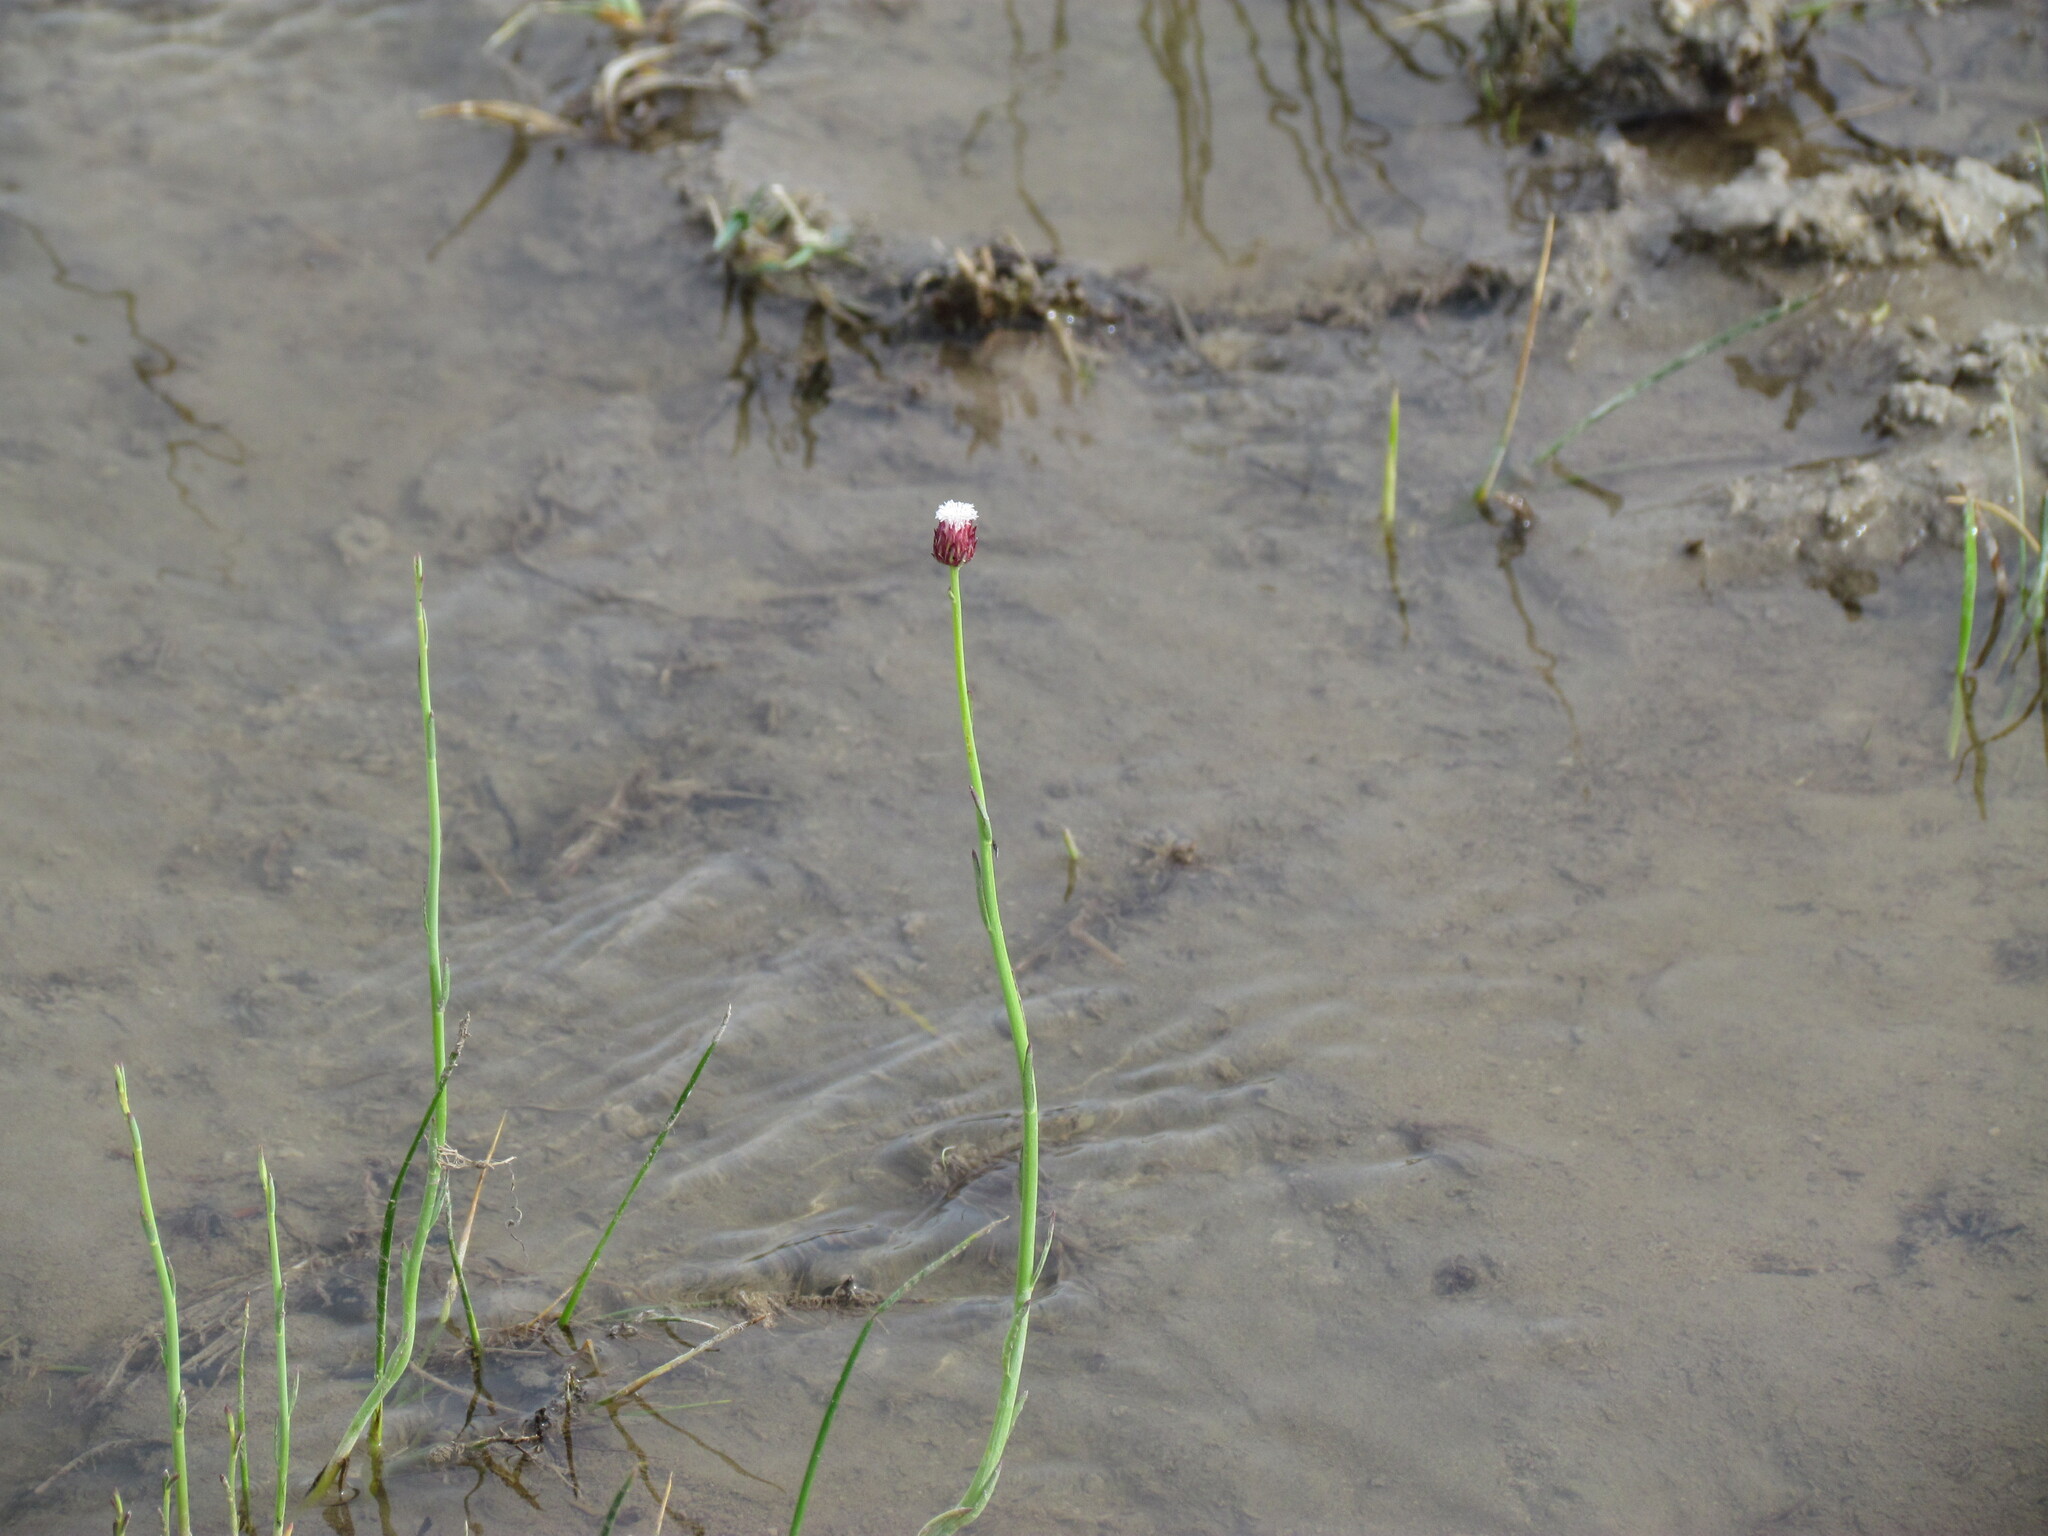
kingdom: Plantae
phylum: Tracheophyta
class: Magnoliopsida
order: Asterales
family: Asteraceae
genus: Baccharis
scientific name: Baccharis juncea
